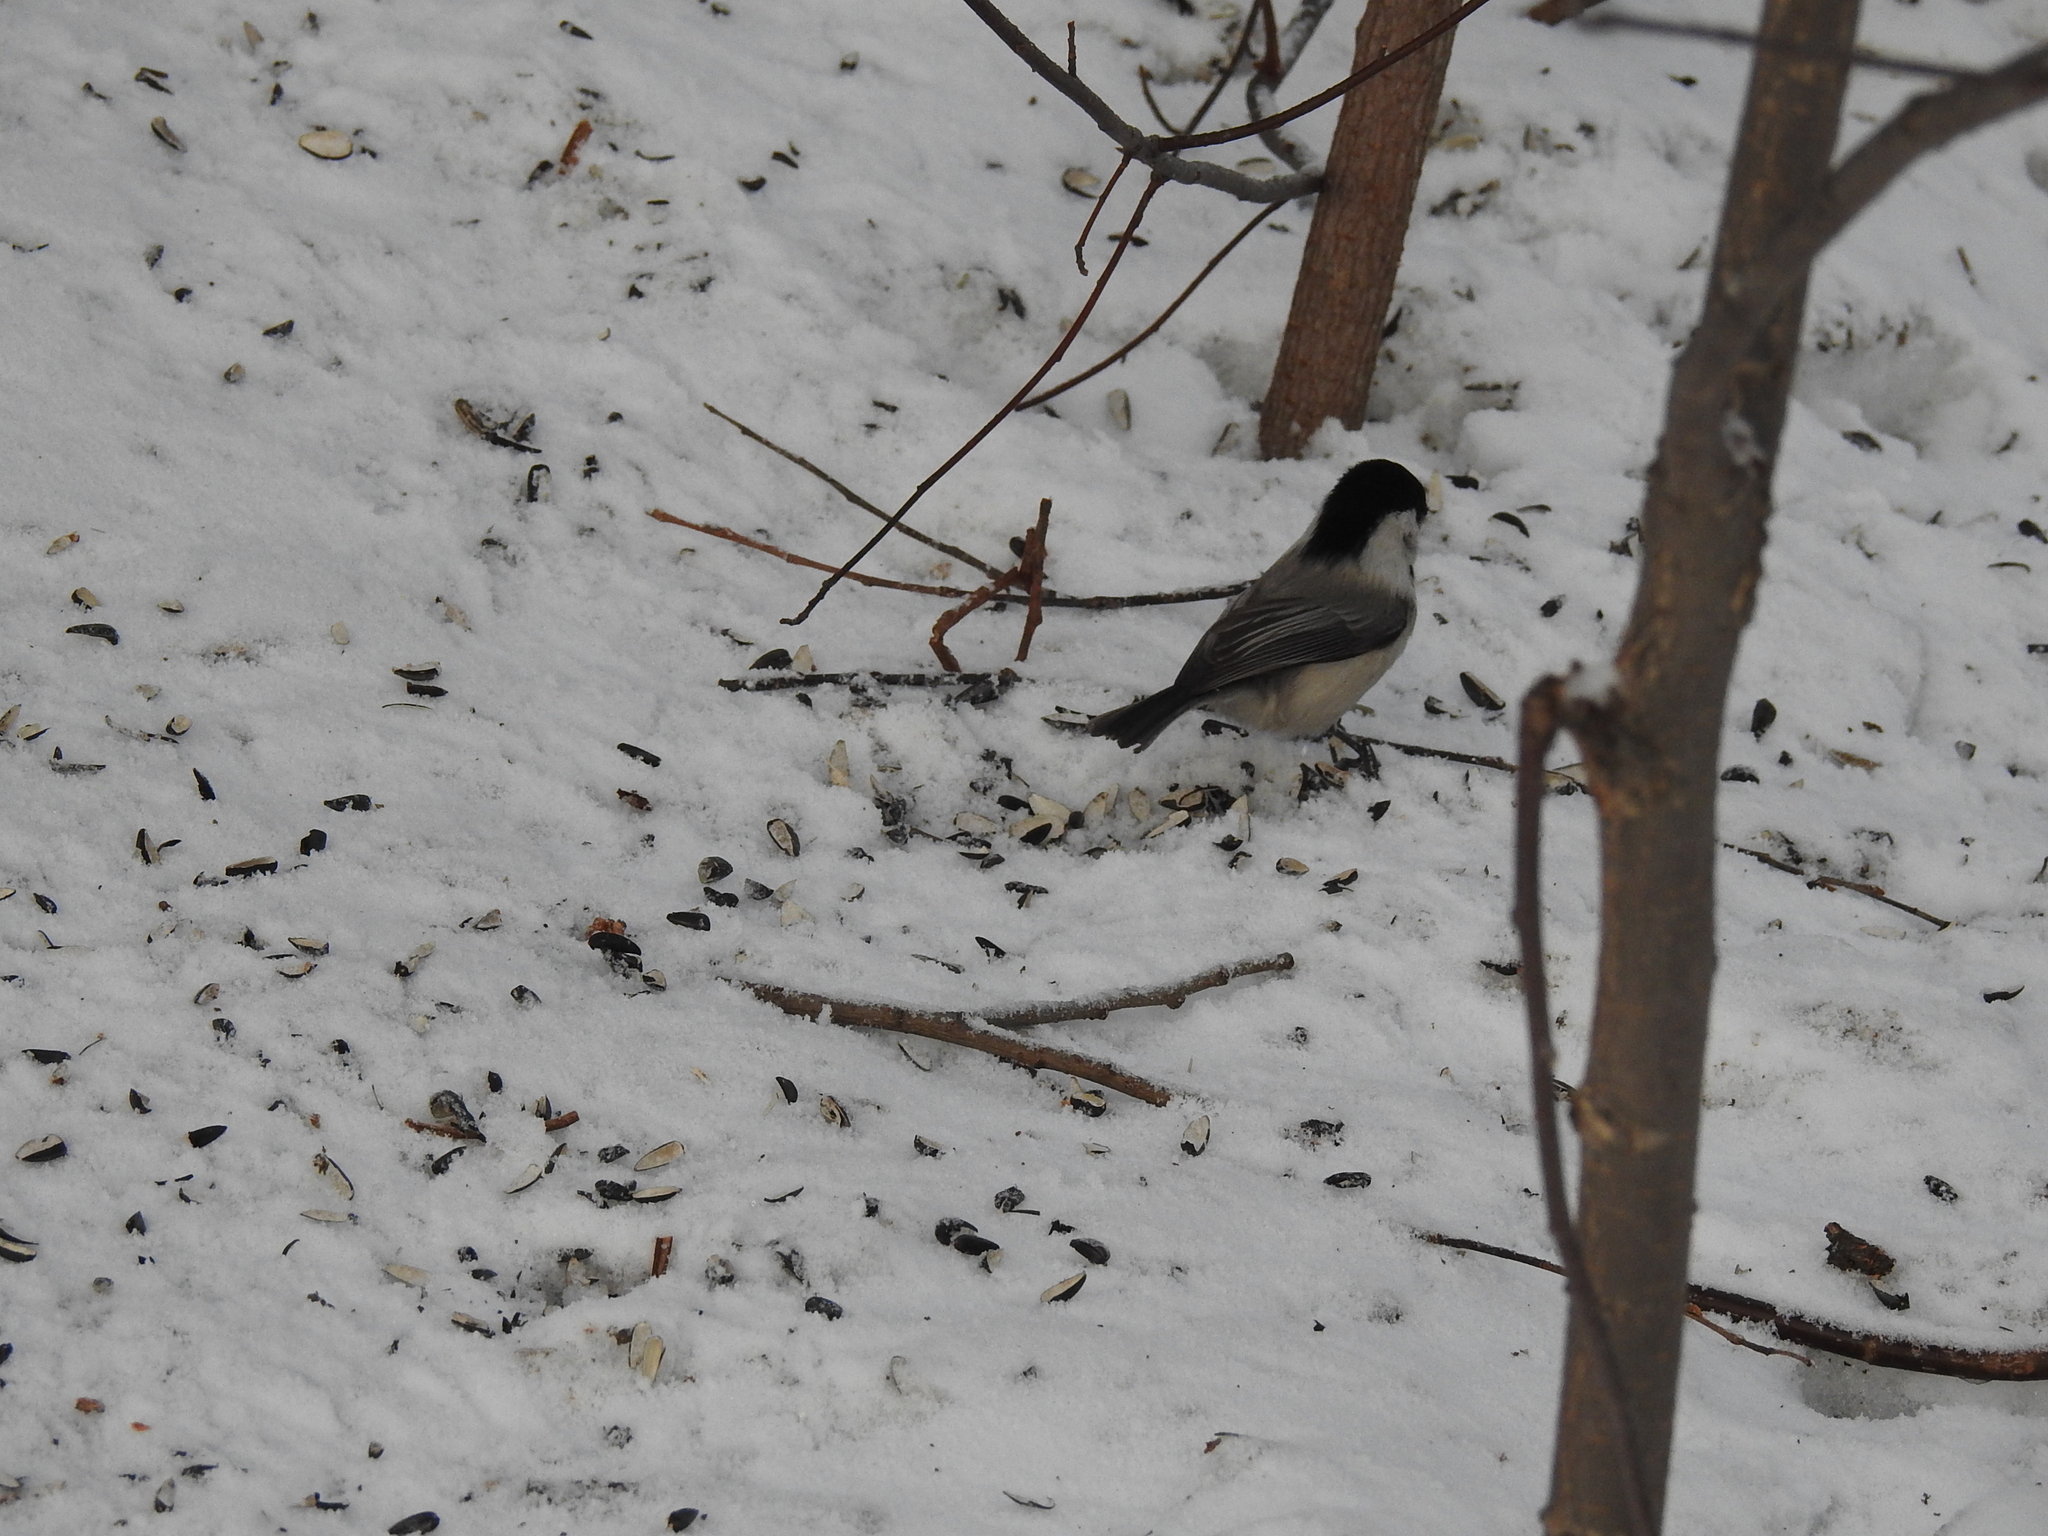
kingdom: Animalia
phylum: Chordata
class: Aves
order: Passeriformes
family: Paridae
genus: Poecile
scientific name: Poecile montanus
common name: Willow tit
